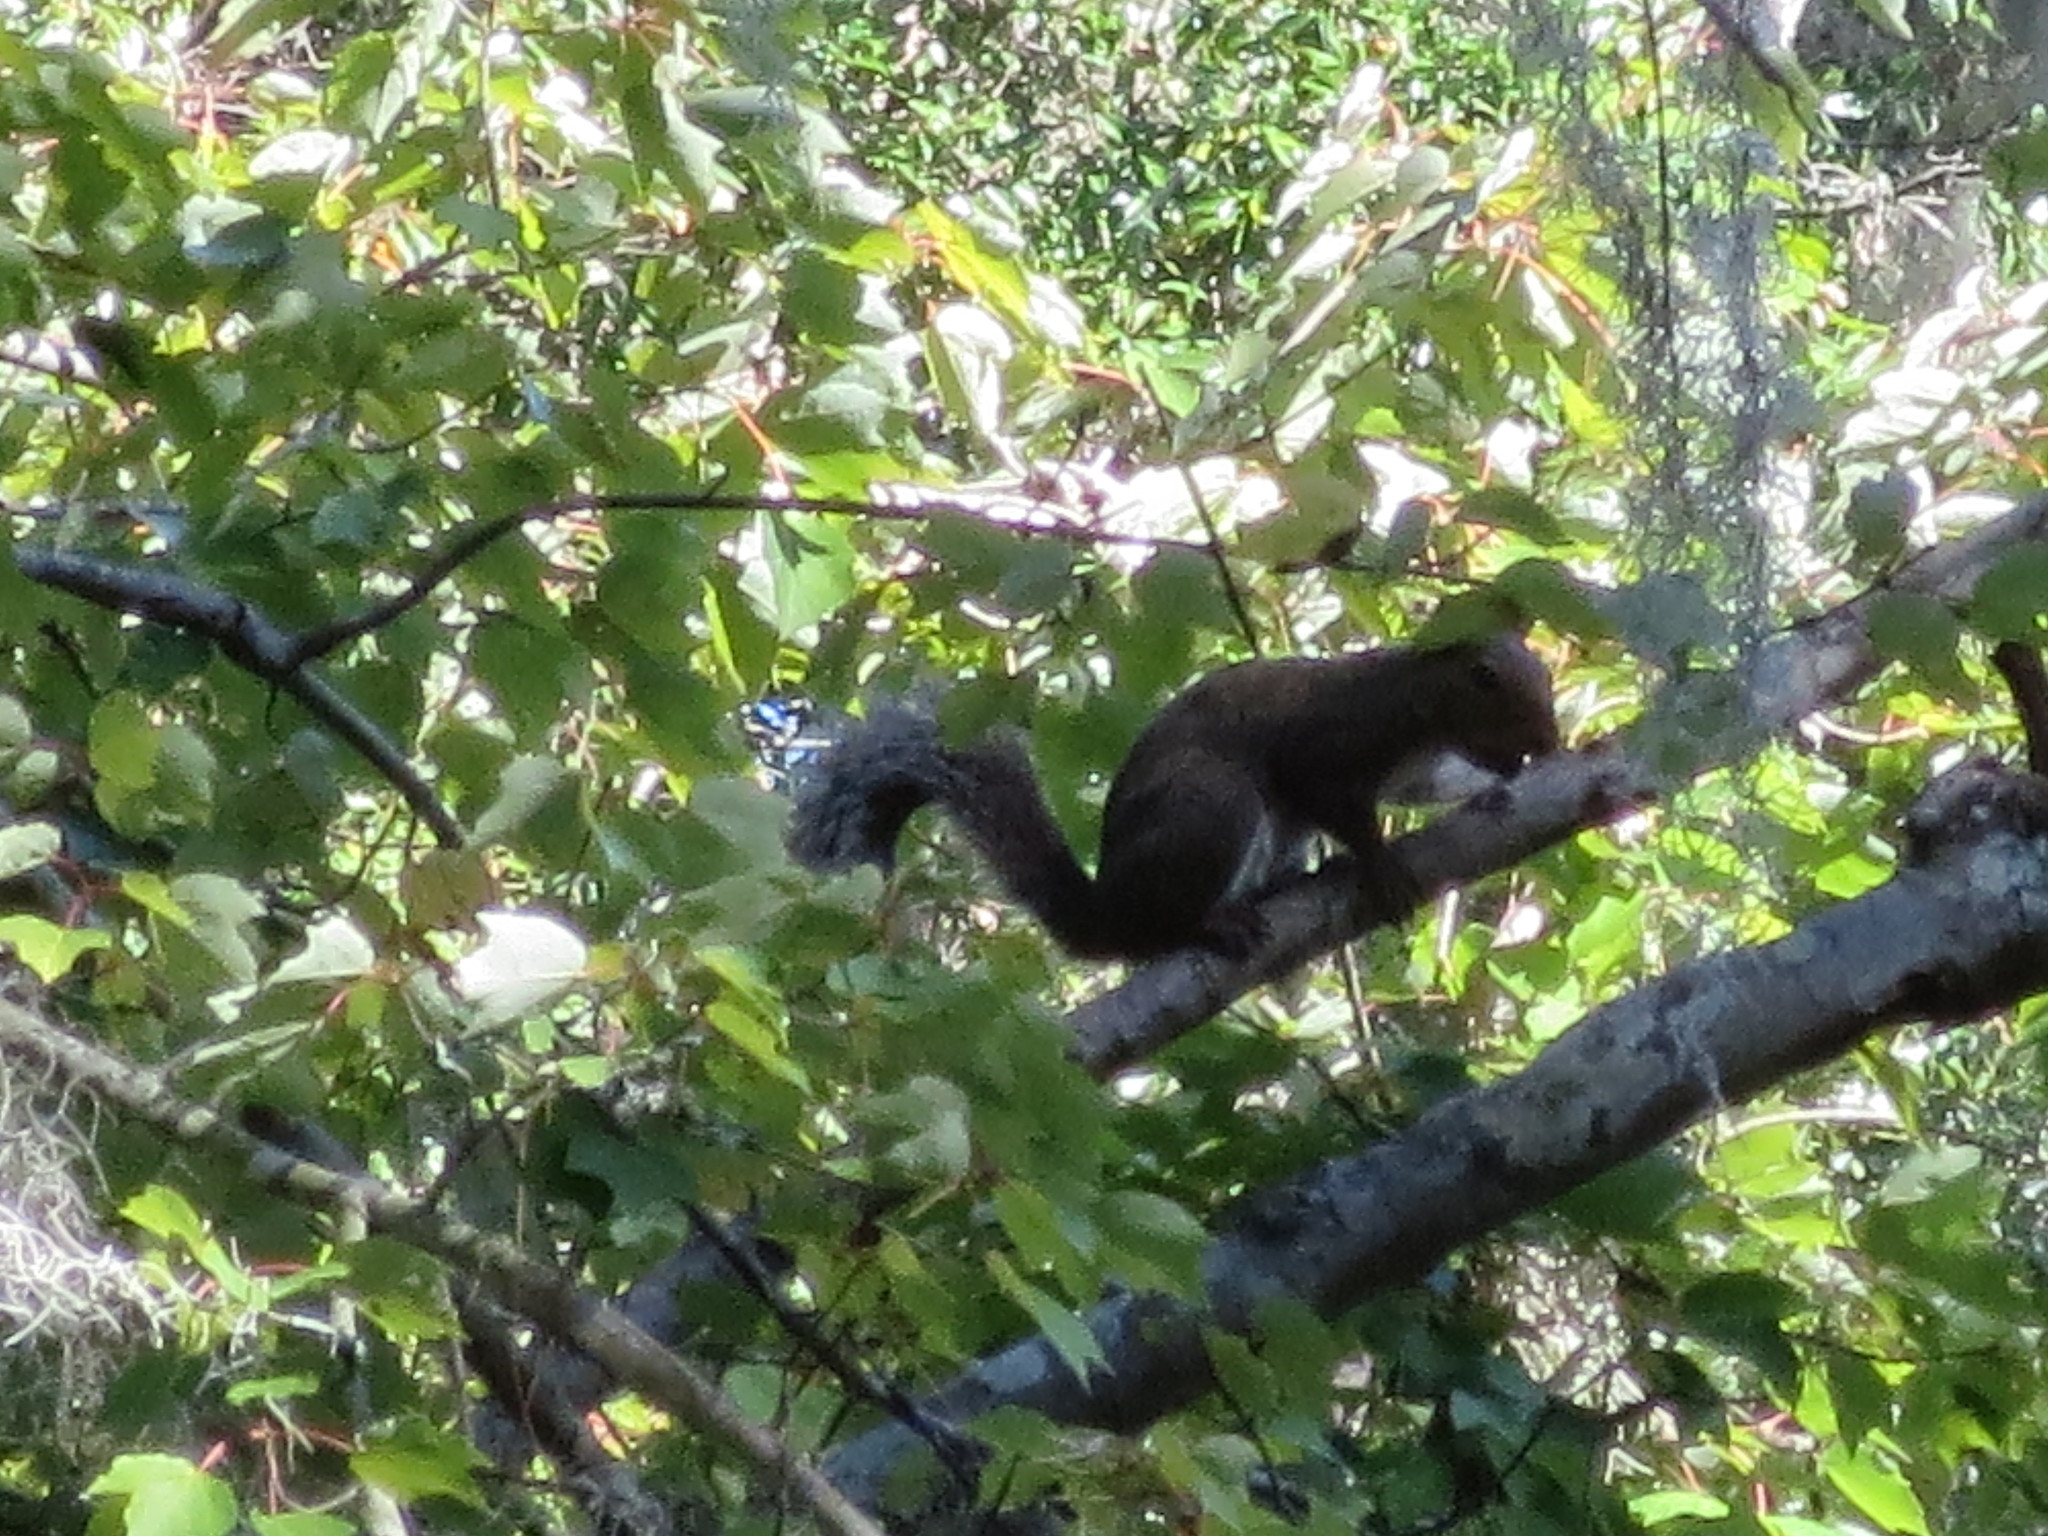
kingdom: Animalia
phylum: Chordata
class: Mammalia
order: Rodentia
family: Sciuridae
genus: Sciurus
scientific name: Sciurus carolinensis
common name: Eastern gray squirrel
